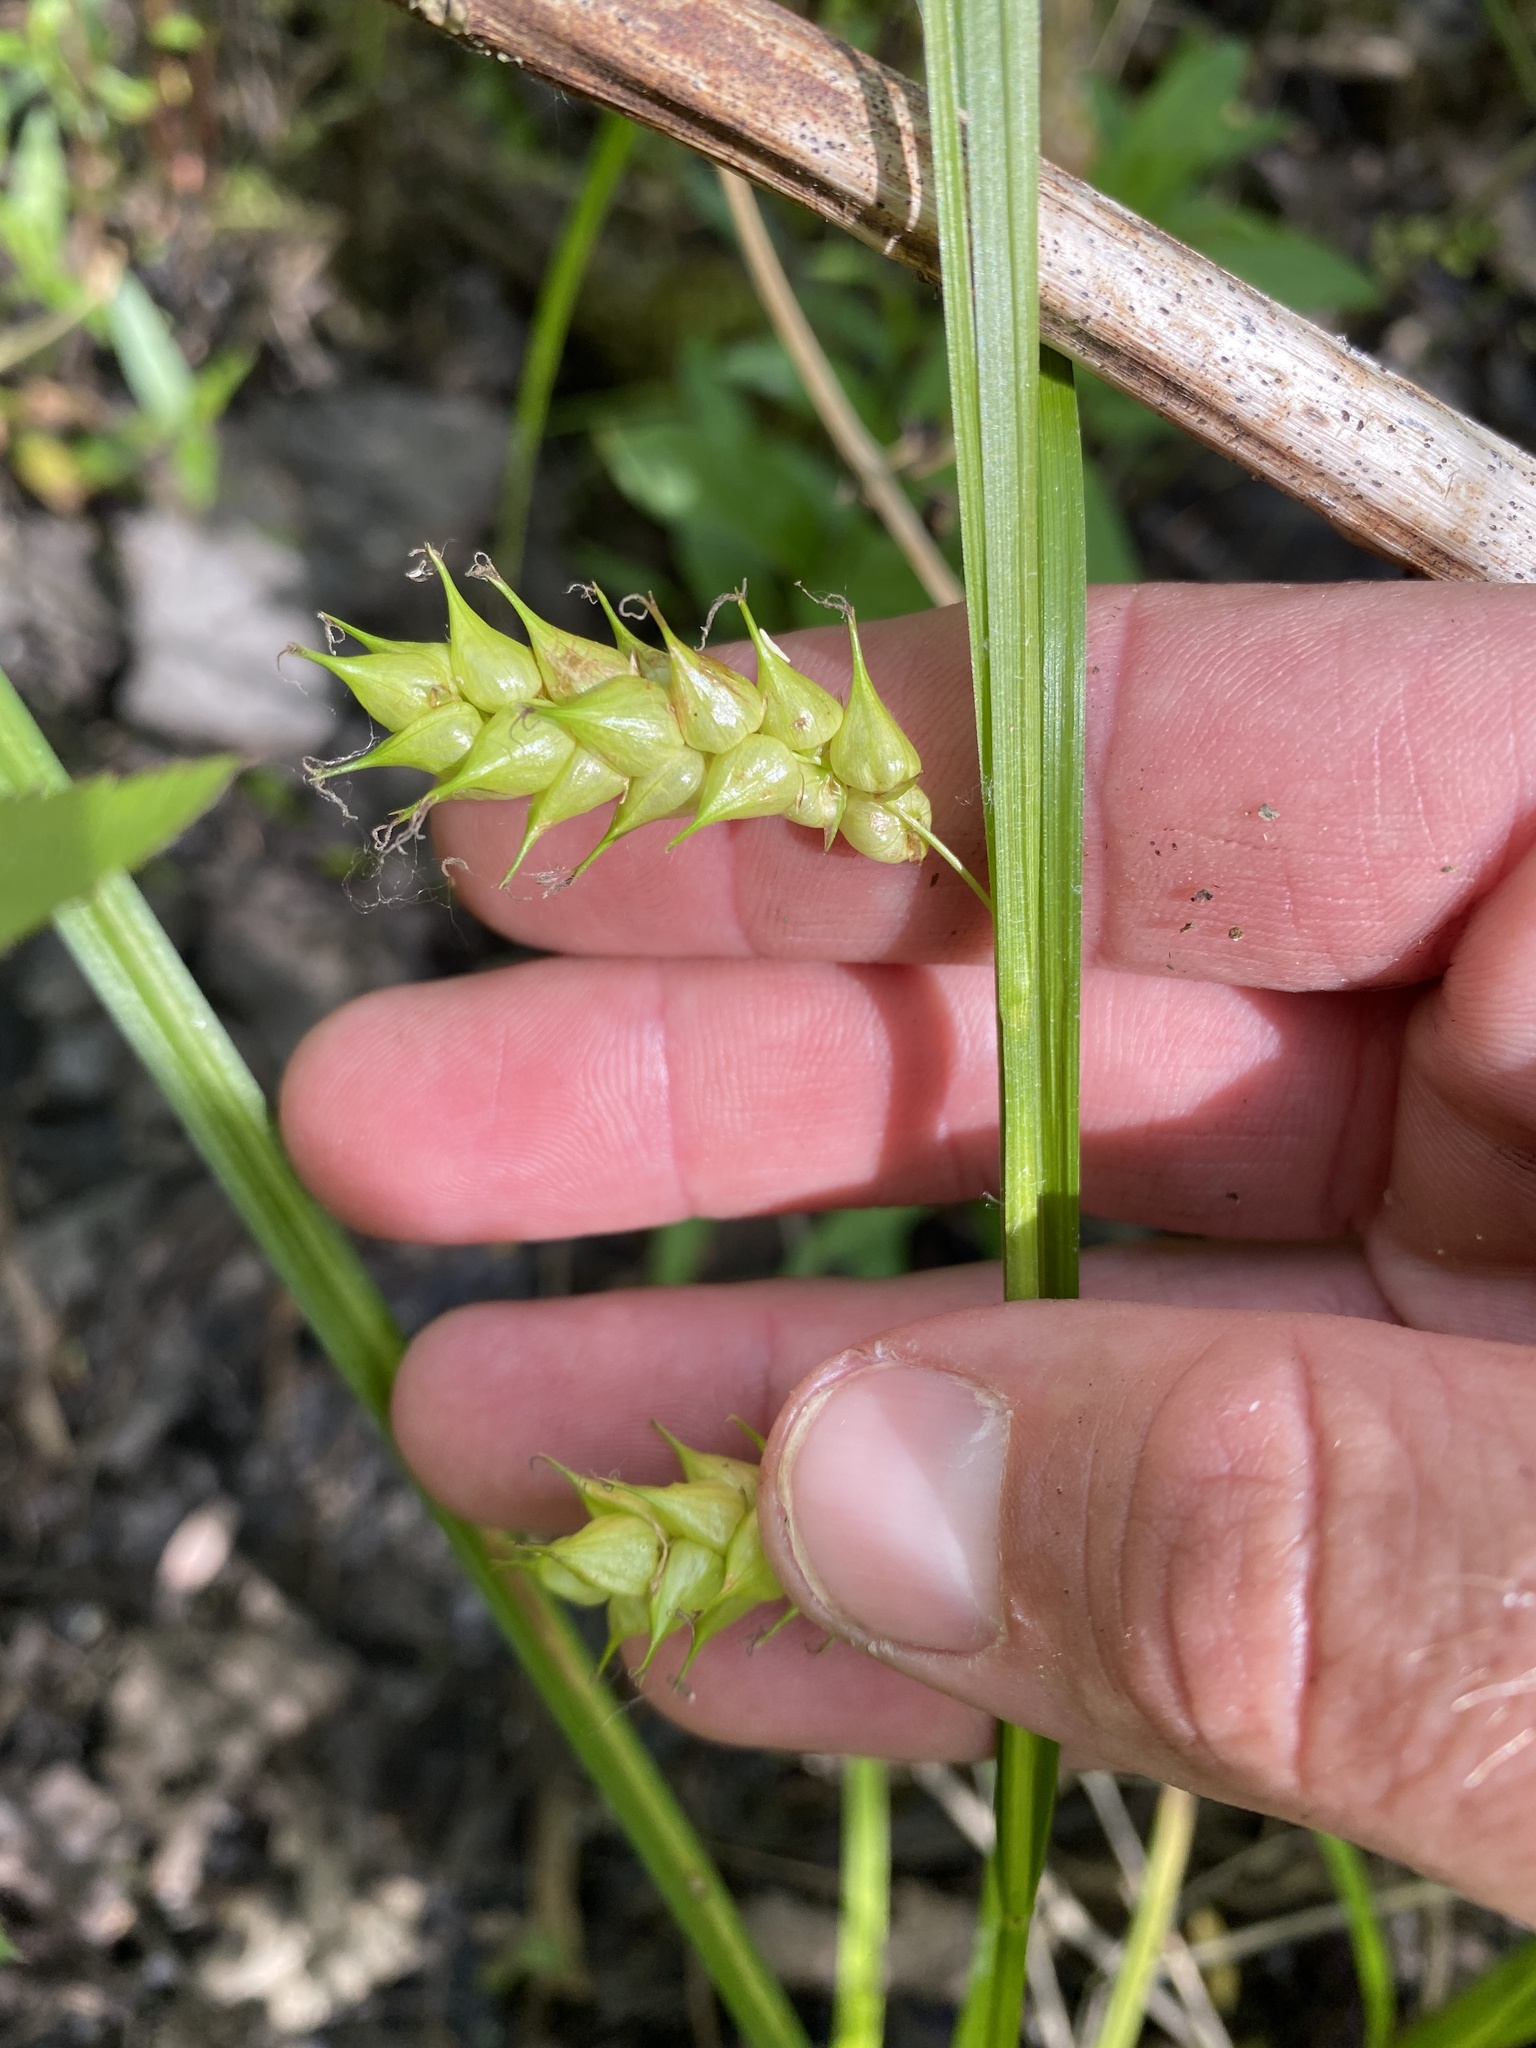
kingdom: Plantae
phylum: Tracheophyta
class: Liliopsida
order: Poales
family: Cyperaceae
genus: Carex
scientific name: Carex tuckermanii
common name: Tuckerman's sedge
